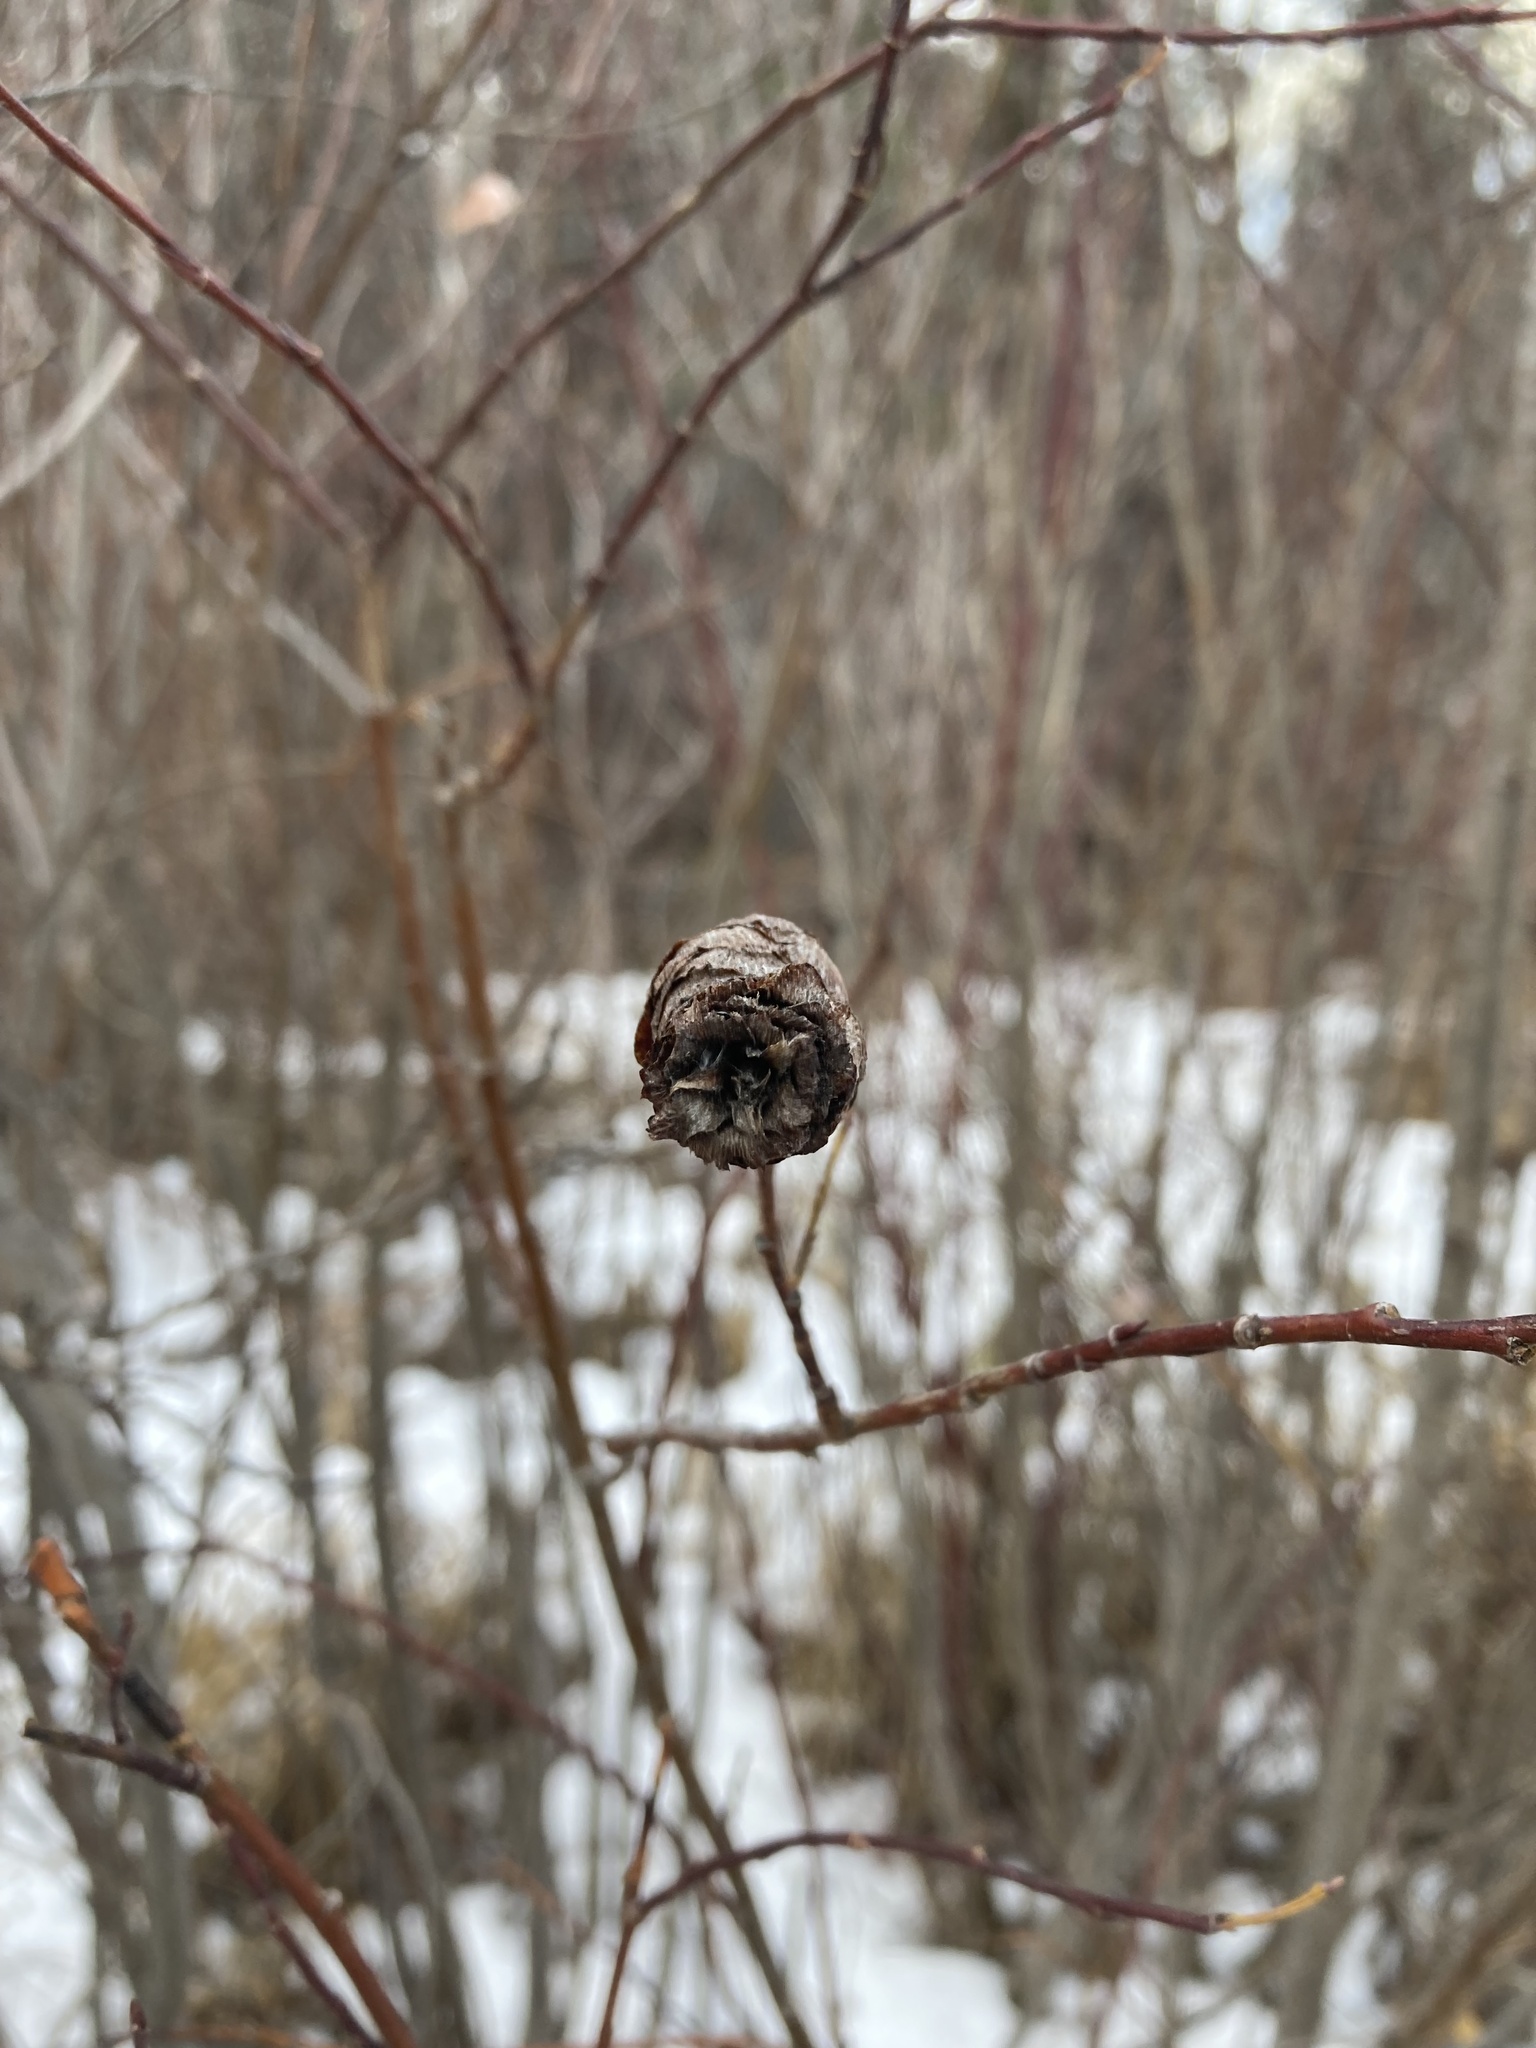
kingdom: Animalia
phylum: Arthropoda
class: Insecta
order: Diptera
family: Cecidomyiidae
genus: Rabdophaga
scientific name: Rabdophaga strobiloides
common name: Willow pinecone gall midge
